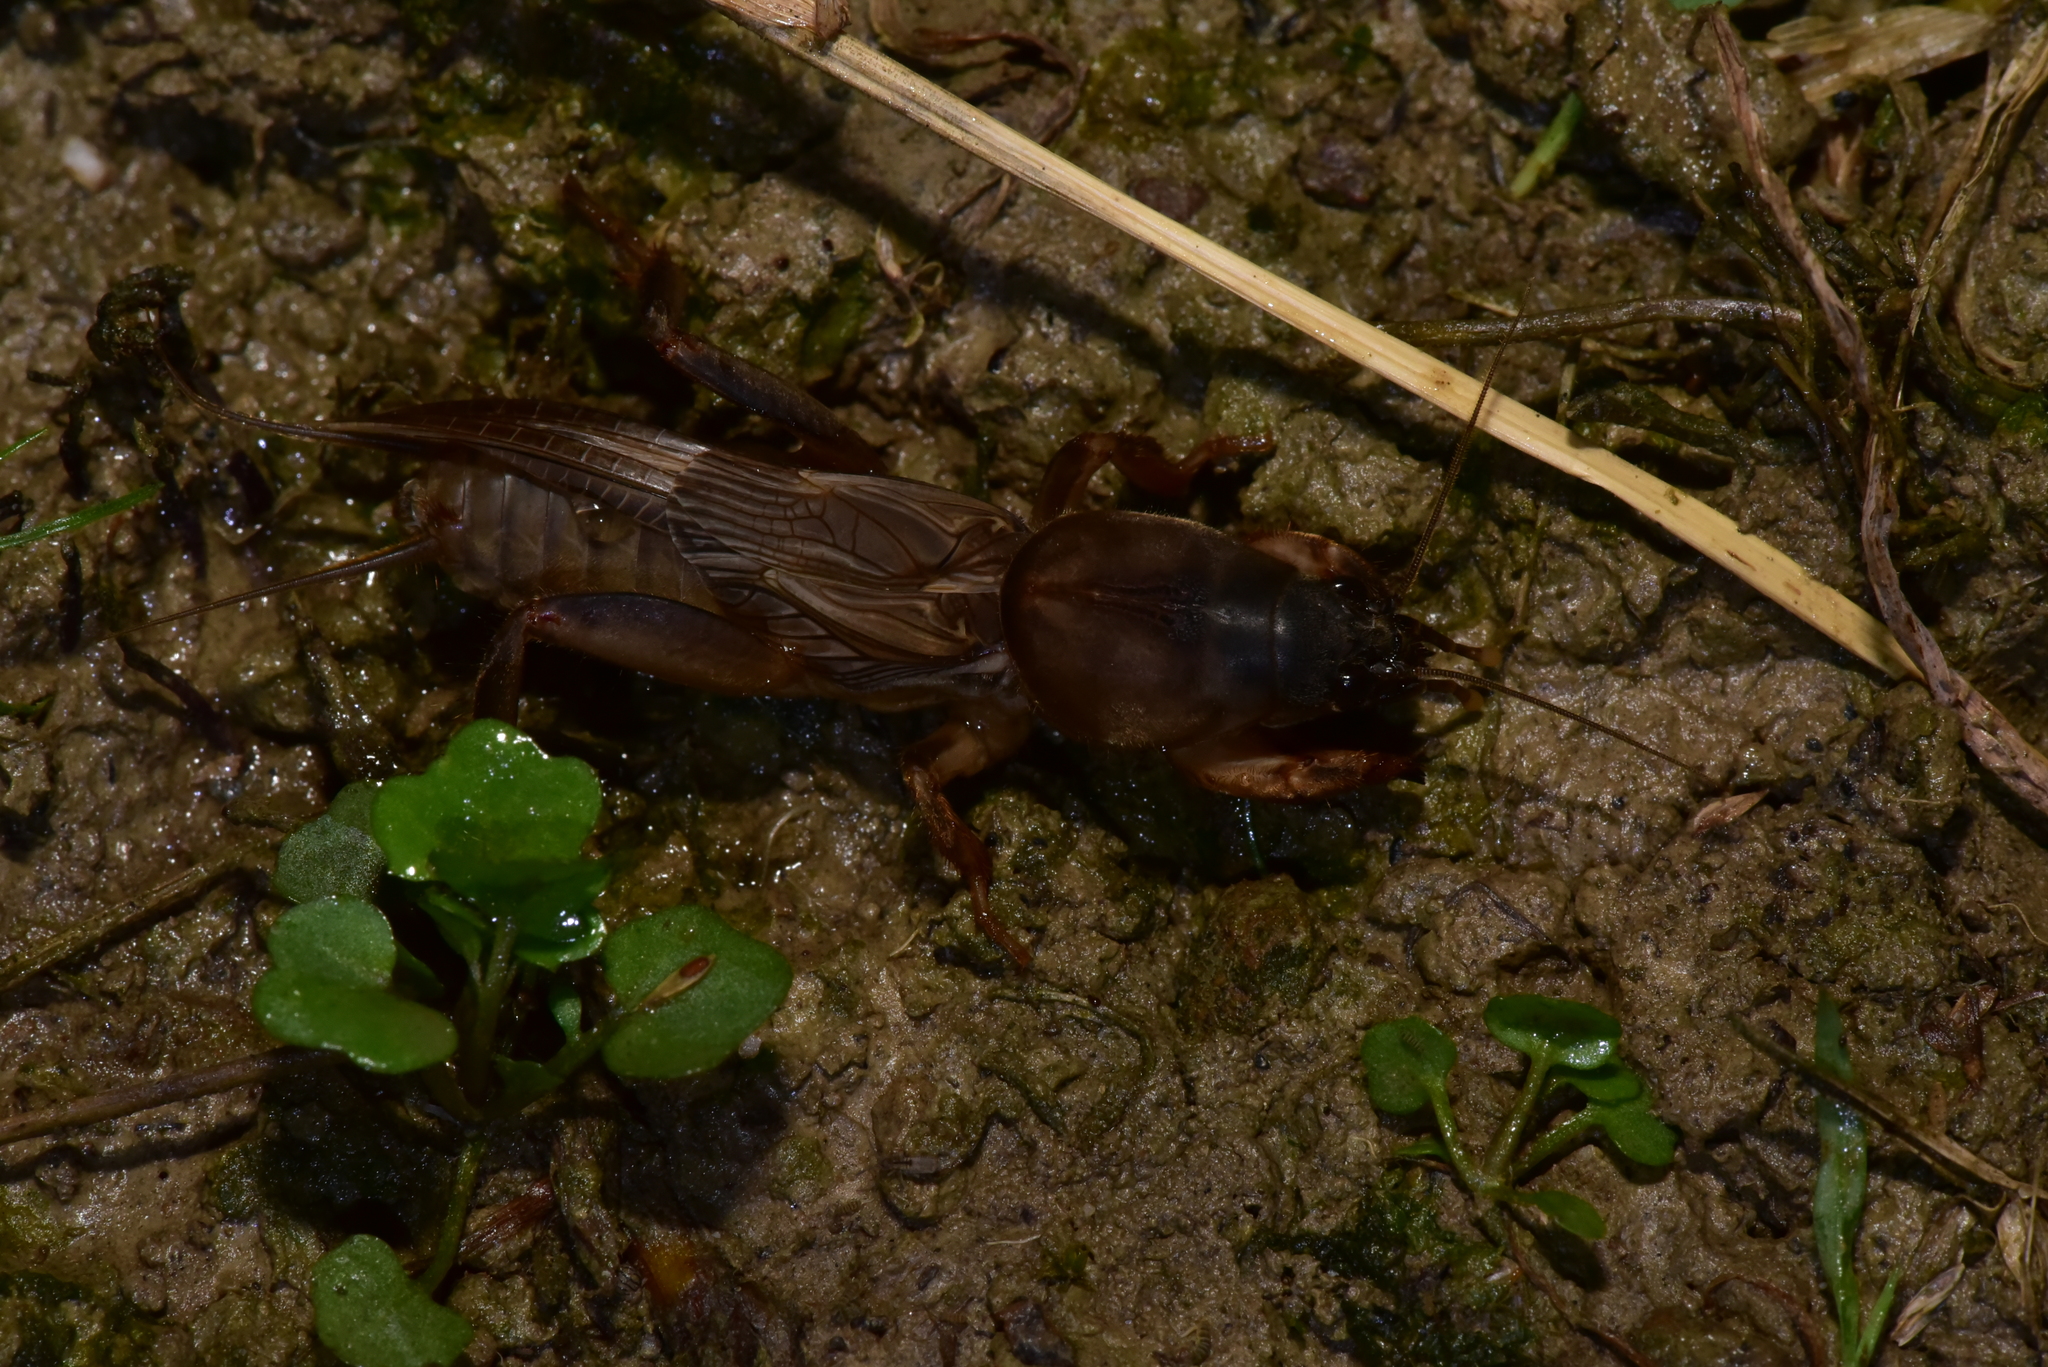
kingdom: Animalia
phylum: Arthropoda
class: Insecta
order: Orthoptera
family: Gryllotalpidae
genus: Gryllotalpa
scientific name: Gryllotalpa orientalis
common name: Grasshopper
